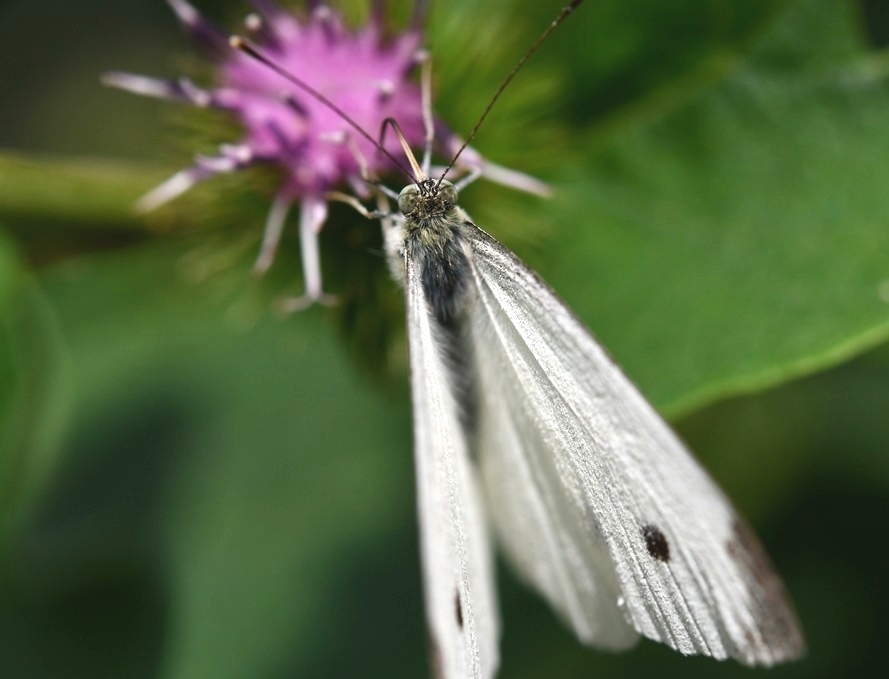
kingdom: Animalia
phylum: Arthropoda
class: Insecta
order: Lepidoptera
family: Pieridae
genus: Pieris
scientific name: Pieris rapae
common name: Small white
